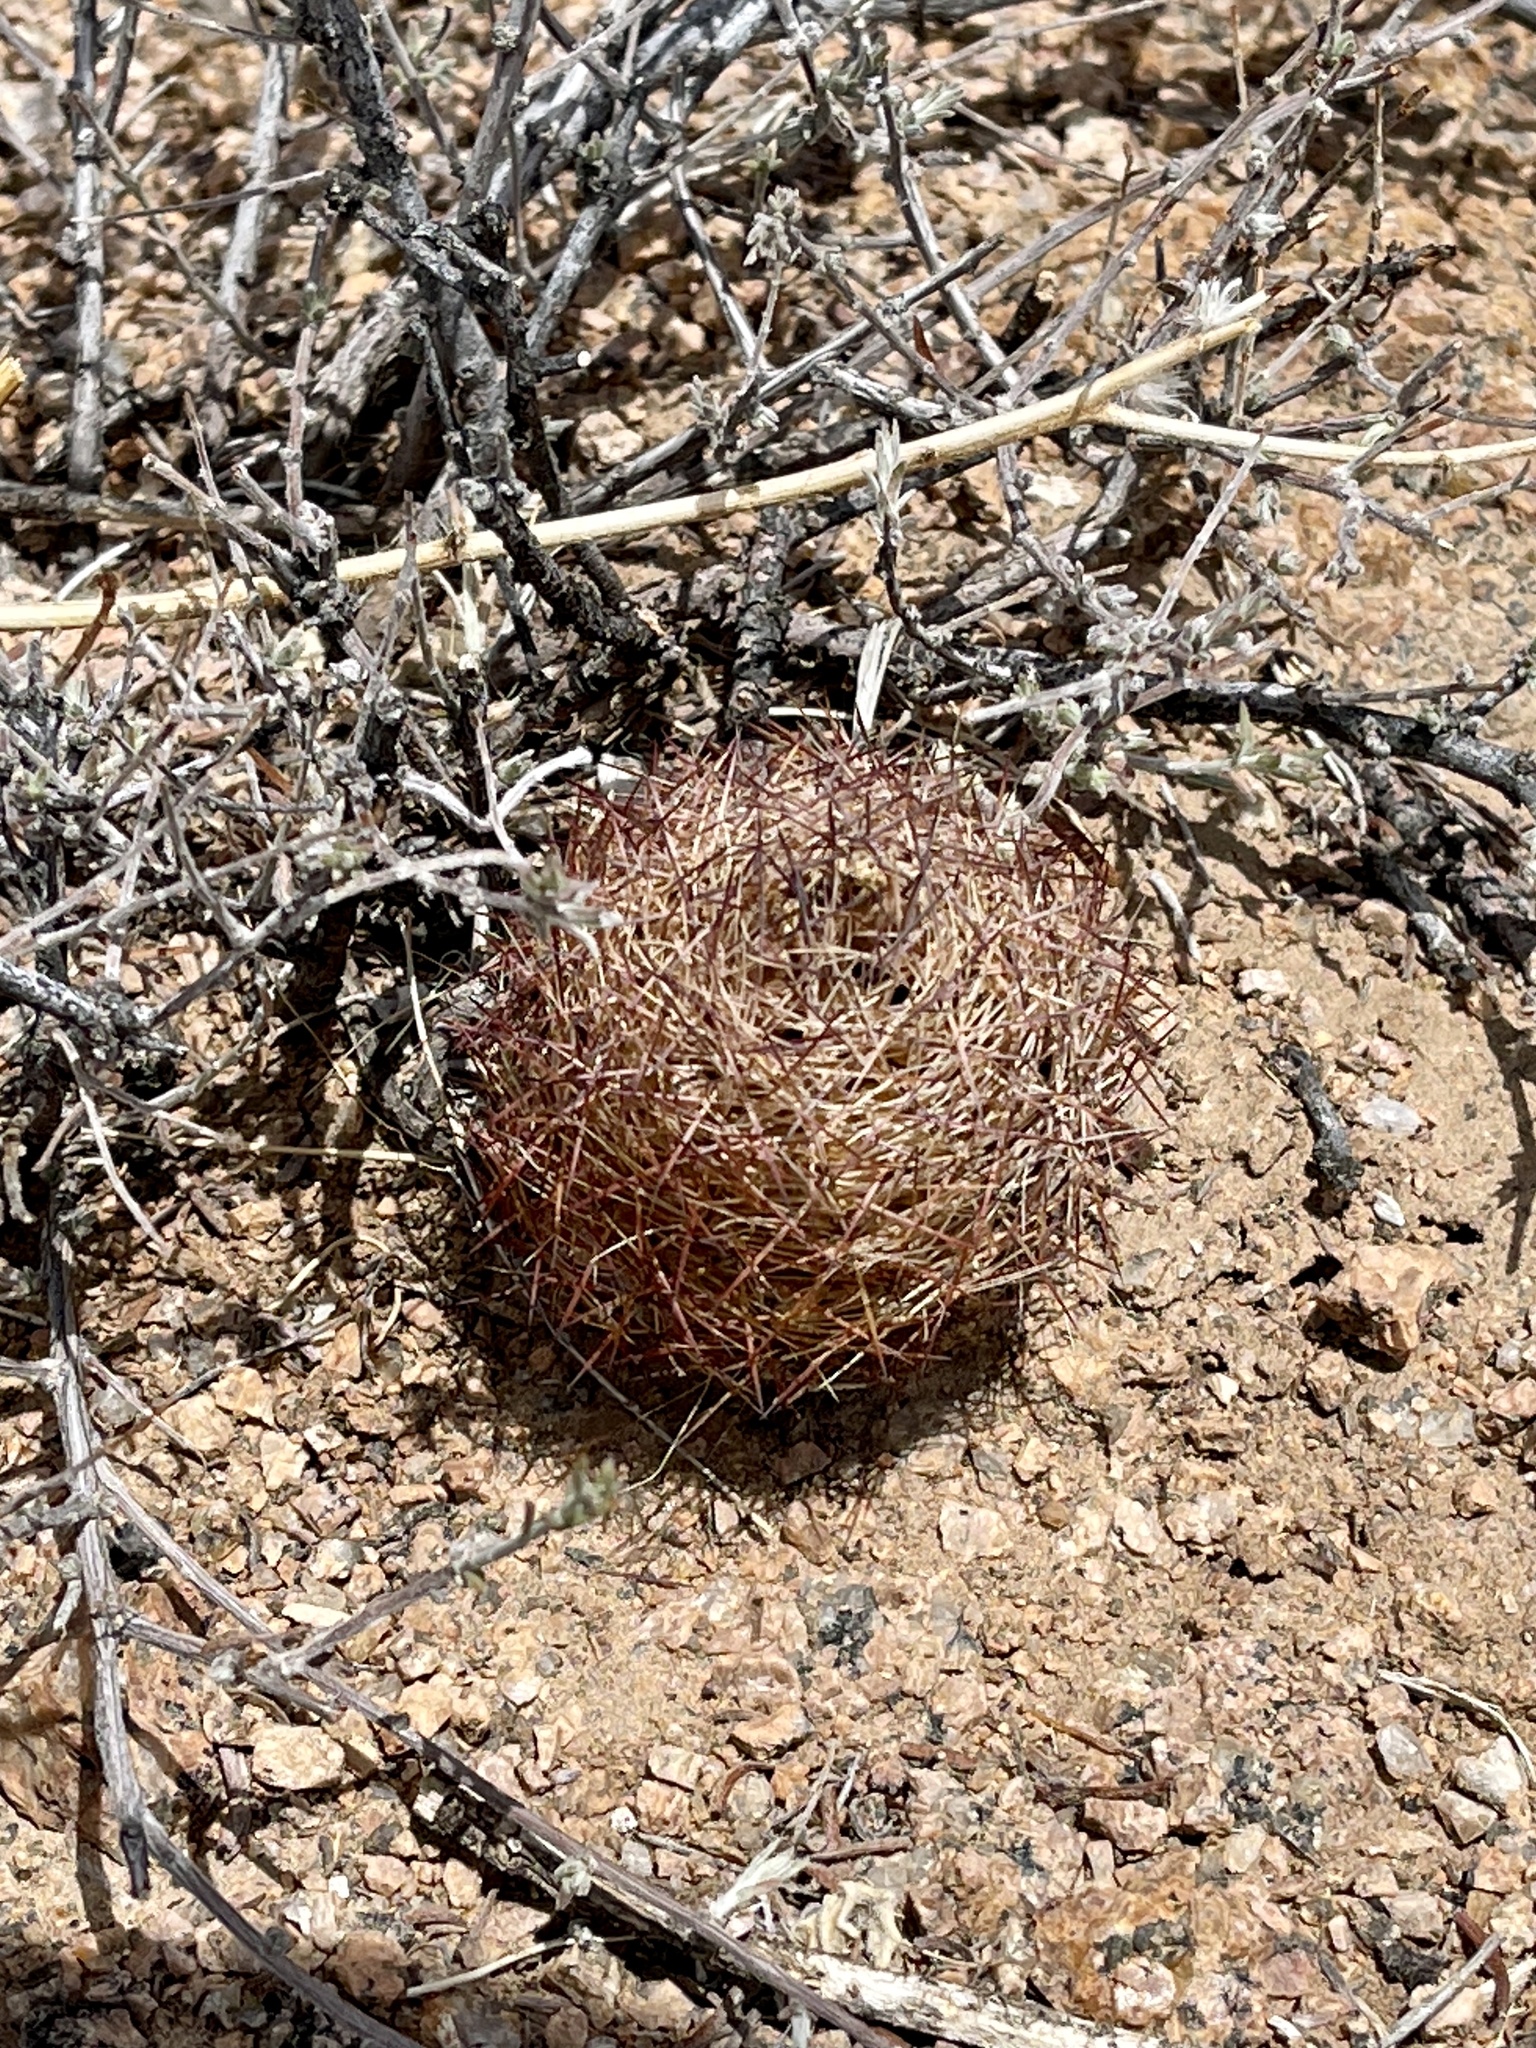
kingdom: Plantae
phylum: Tracheophyta
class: Magnoliopsida
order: Caryophyllales
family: Cactaceae
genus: Sclerocactus
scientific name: Sclerocactus intertextus
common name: White fish-hook cactus
